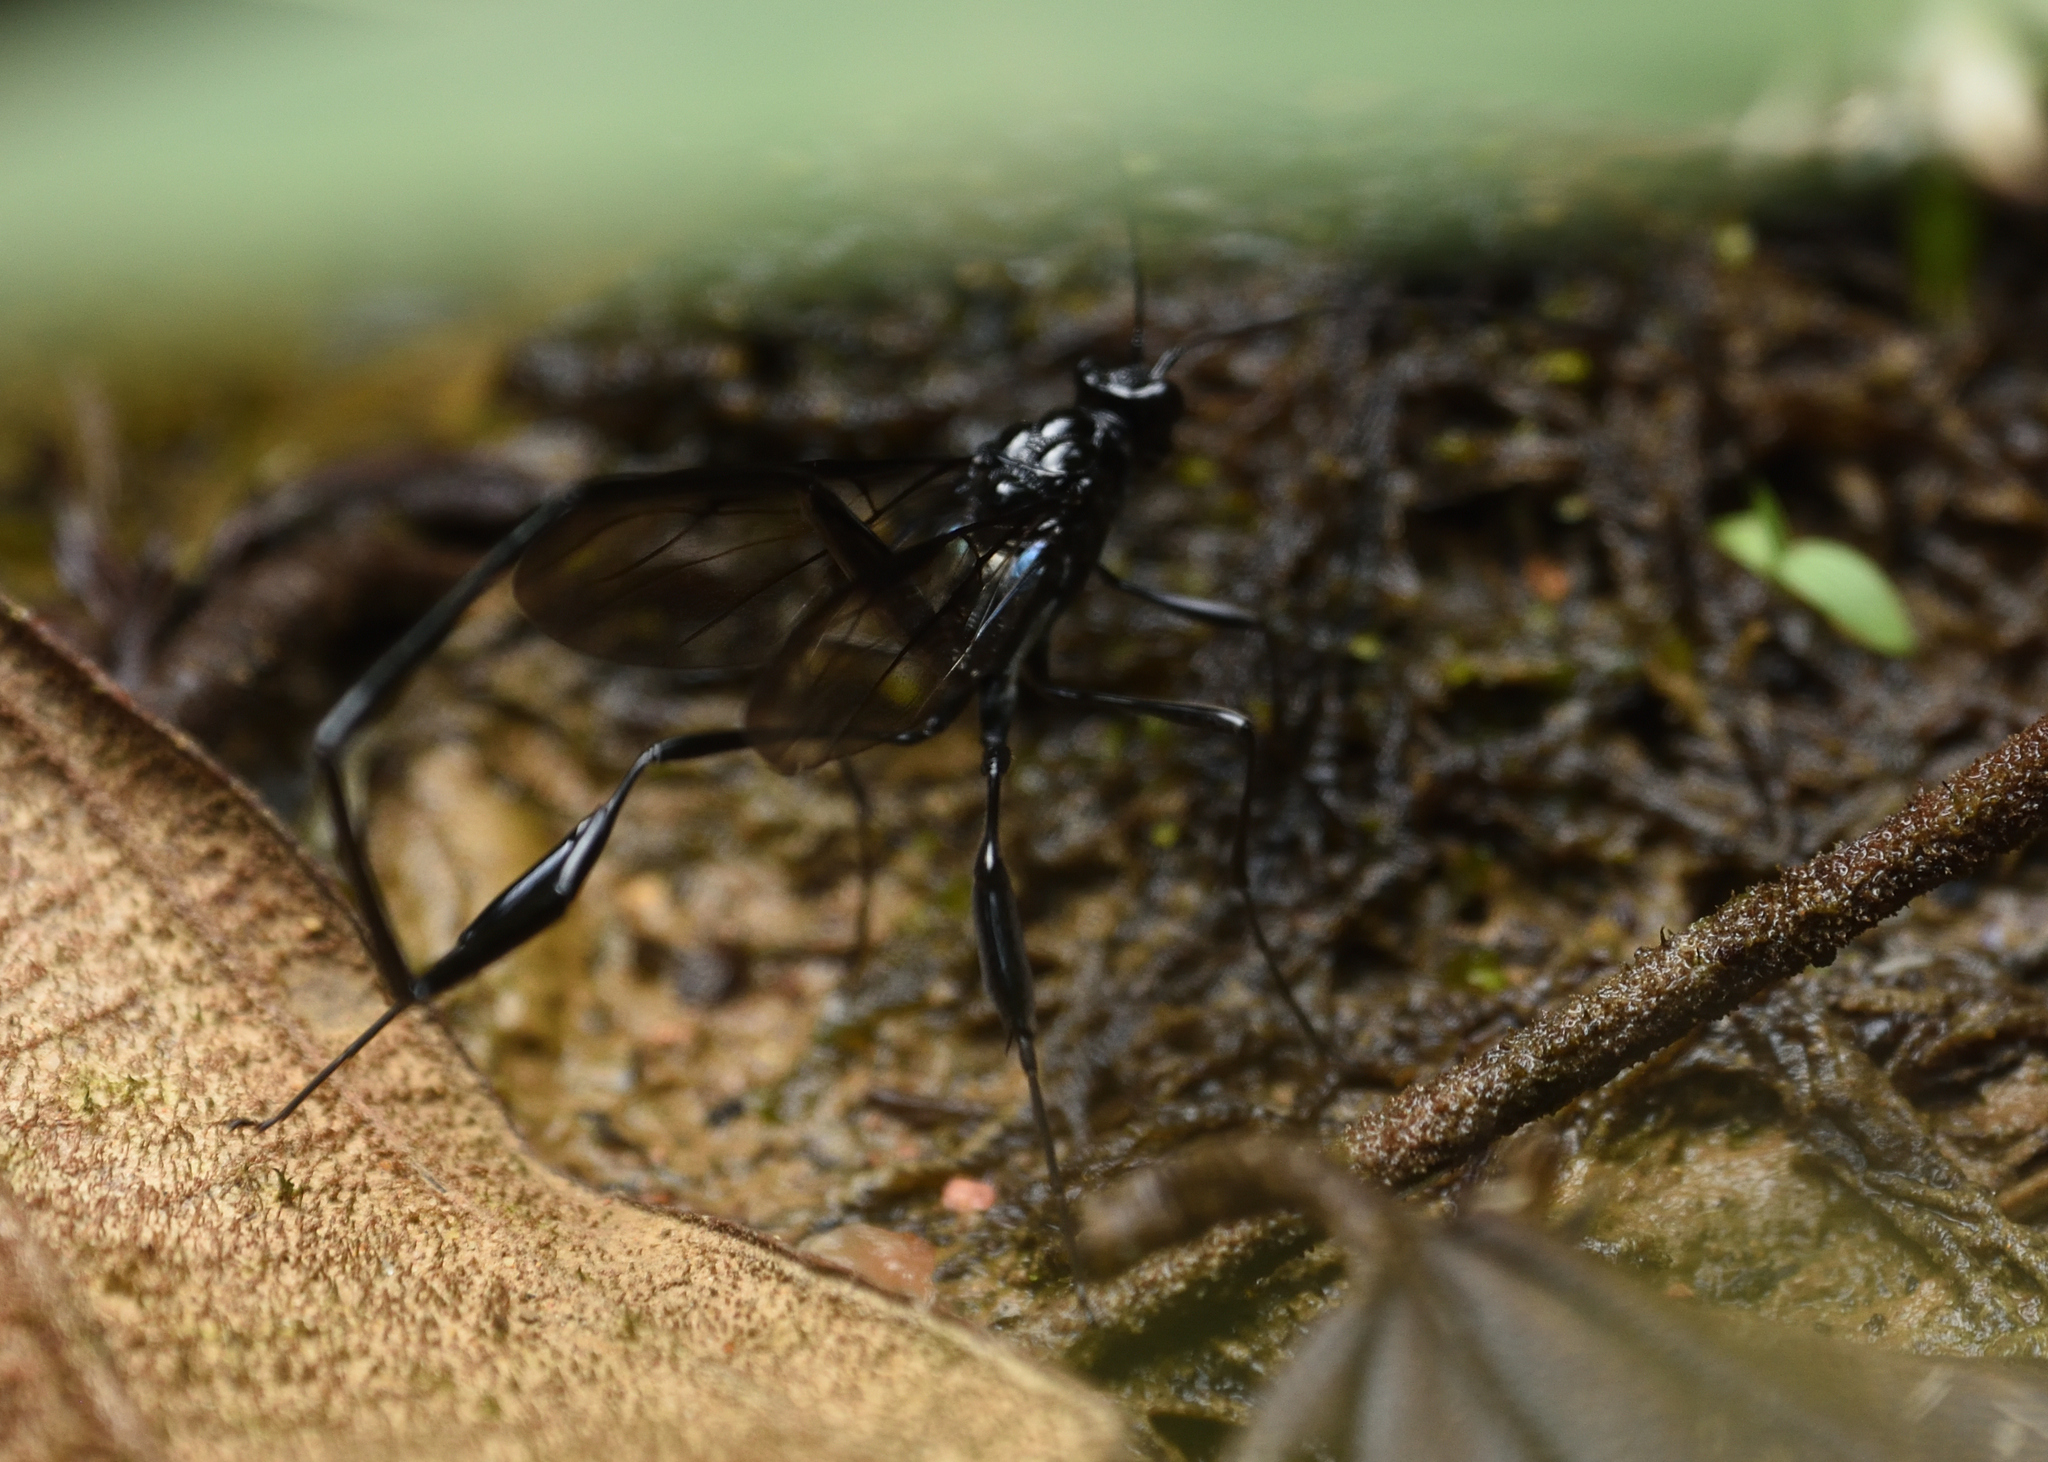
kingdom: Animalia
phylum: Arthropoda
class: Insecta
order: Hymenoptera
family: Pelecinidae
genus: Pelecinus
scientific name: Pelecinus polyturator
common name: American pelecinid wasp
